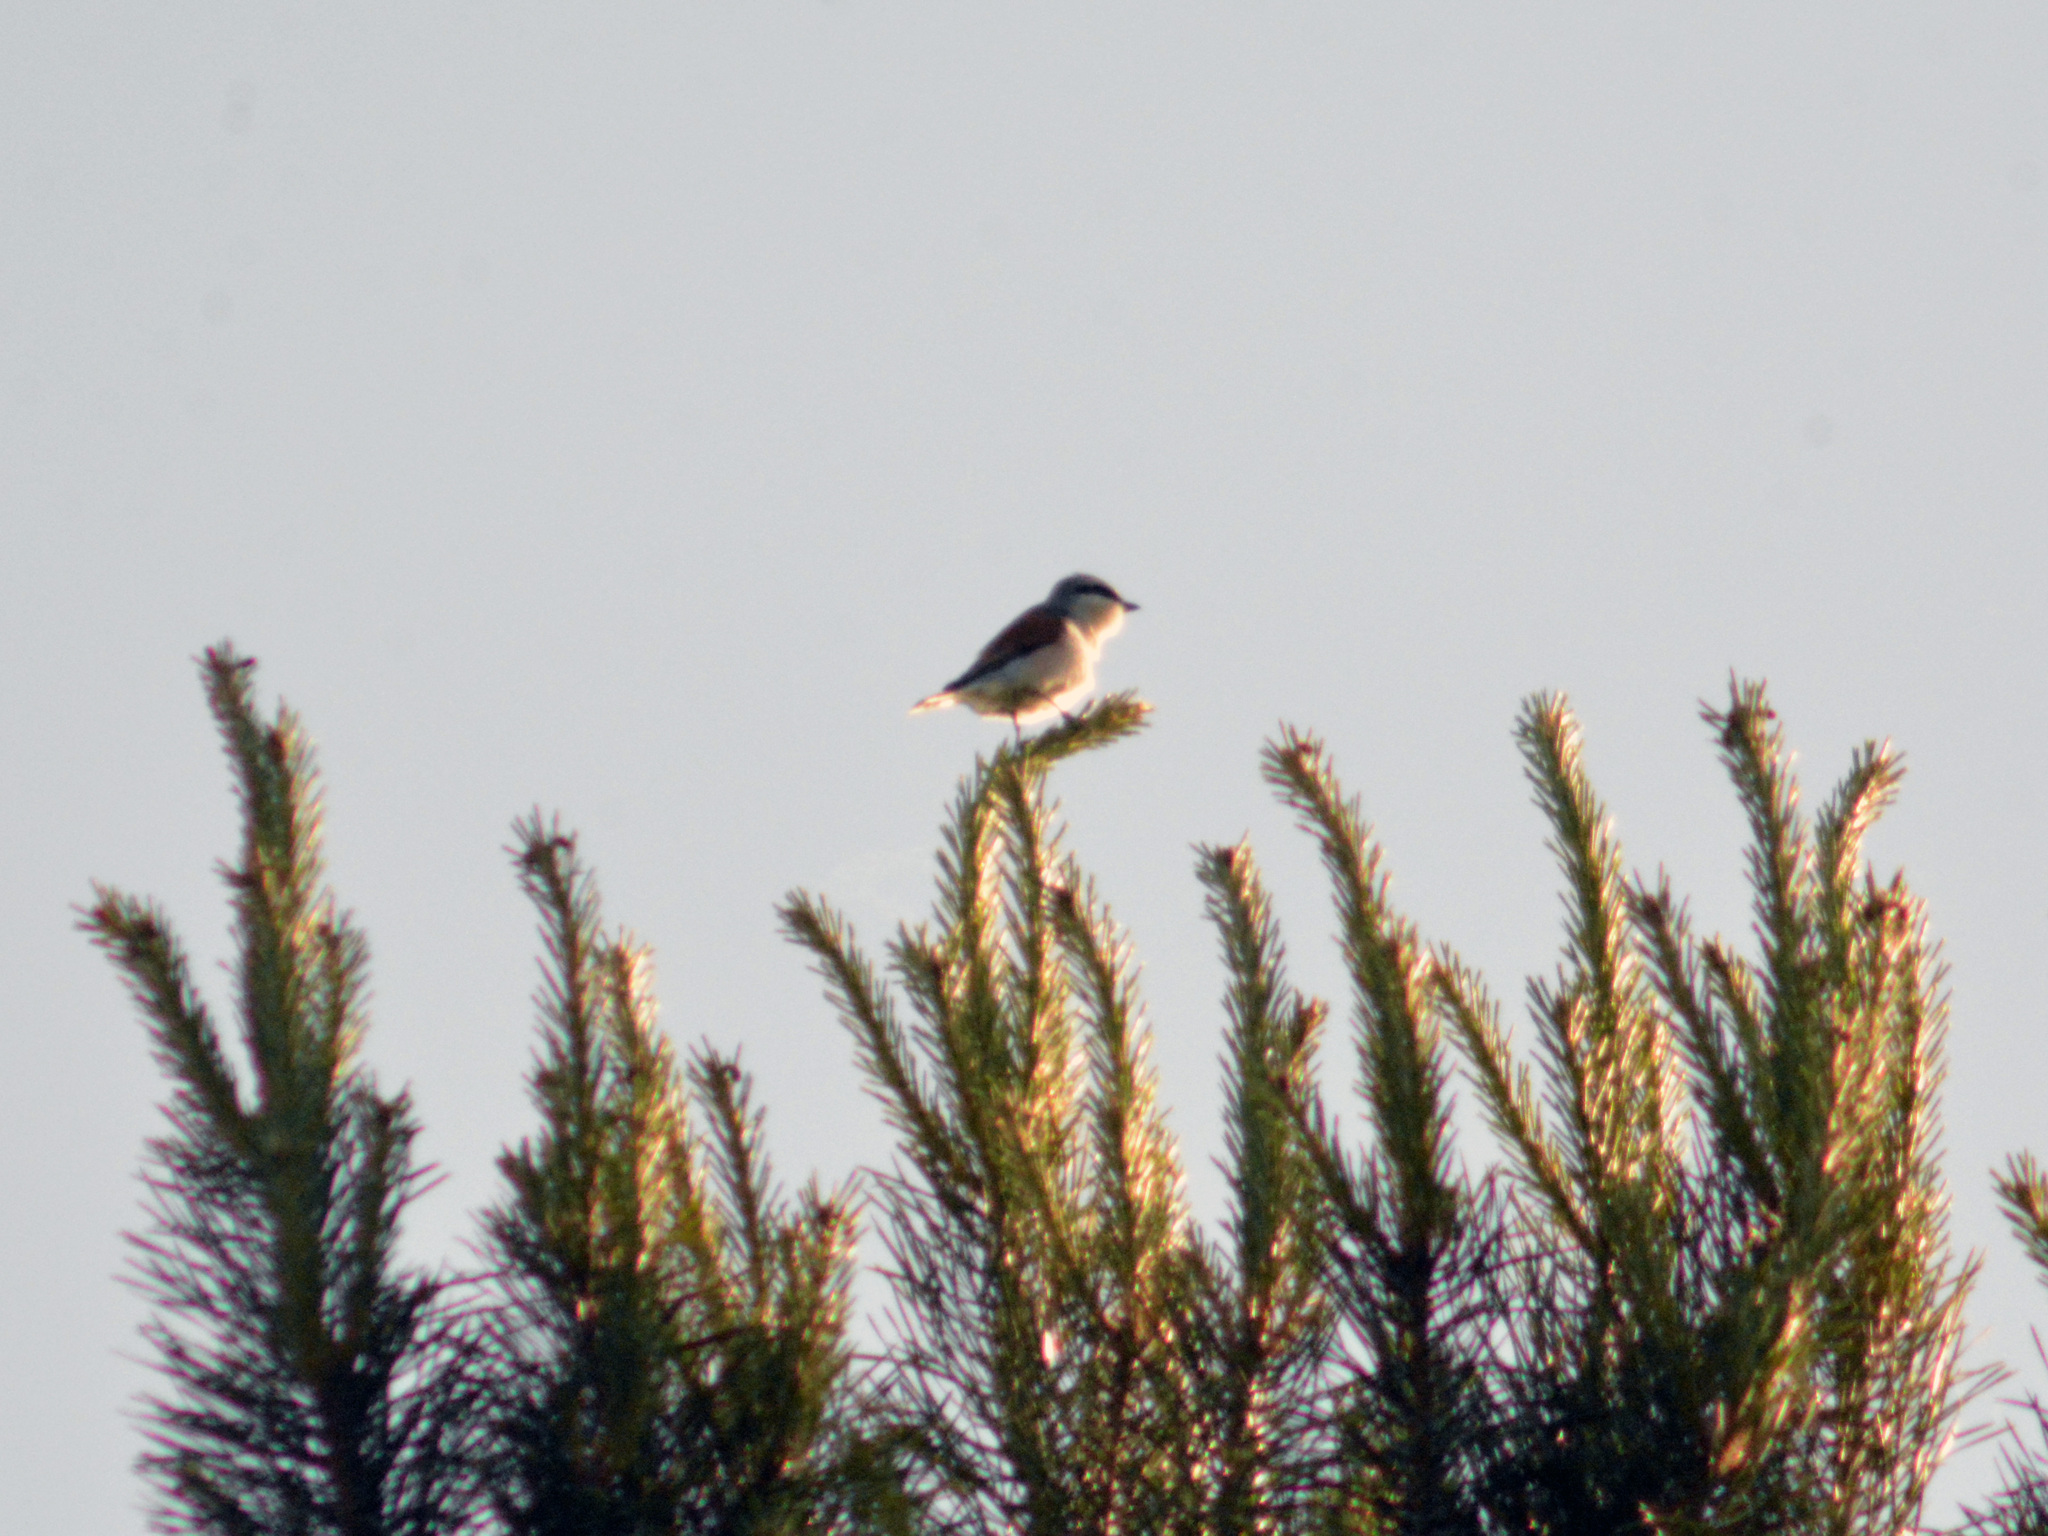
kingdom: Animalia
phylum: Chordata
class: Aves
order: Passeriformes
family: Laniidae
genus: Lanius
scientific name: Lanius collurio
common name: Red-backed shrike
